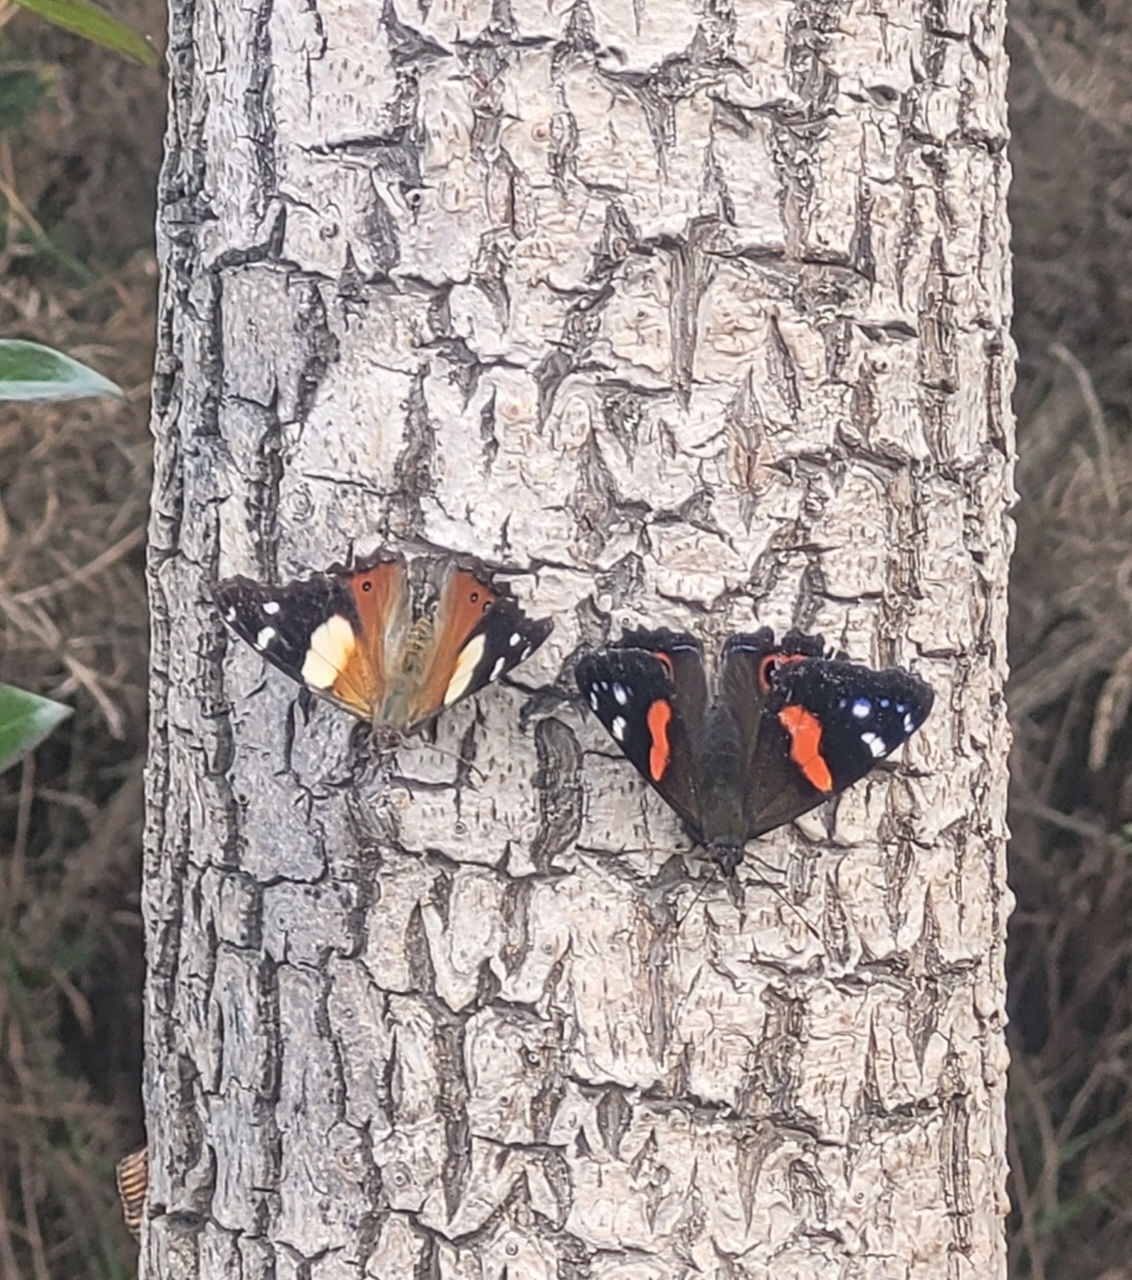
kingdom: Animalia
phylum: Arthropoda
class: Insecta
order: Lepidoptera
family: Nymphalidae
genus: Vanessa
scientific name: Vanessa itea
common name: Yellow admiral
